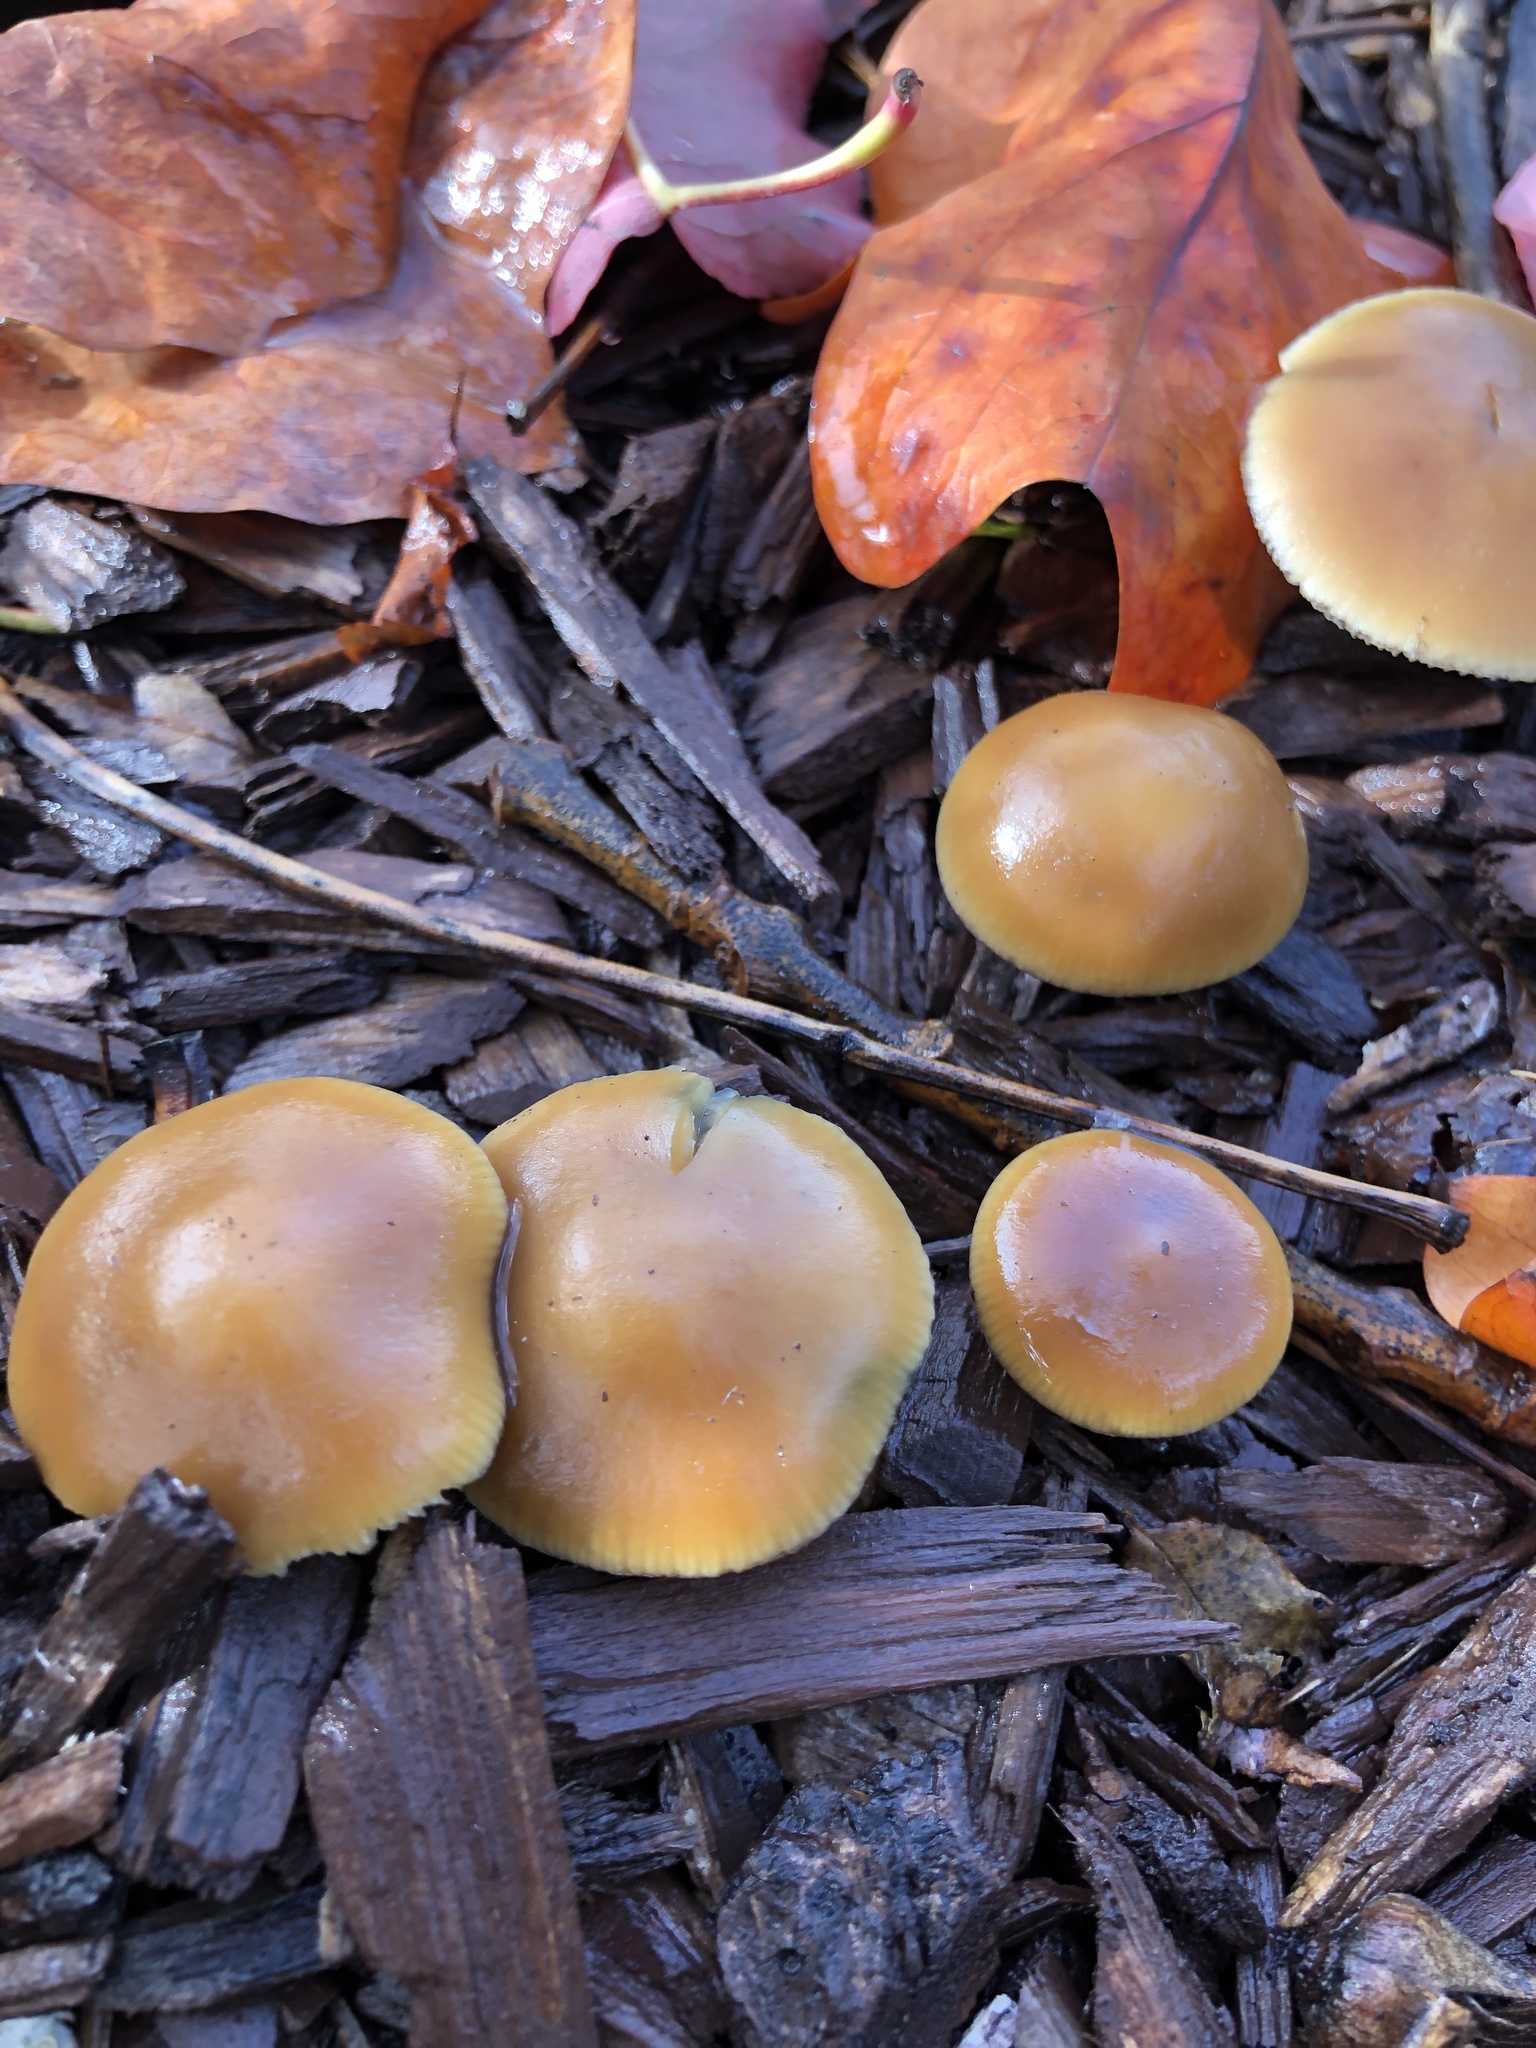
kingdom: Fungi
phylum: Basidiomycota
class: Agaricomycetes
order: Agaricales
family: Hymenogastraceae
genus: Psilocybe
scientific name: Psilocybe allenii
